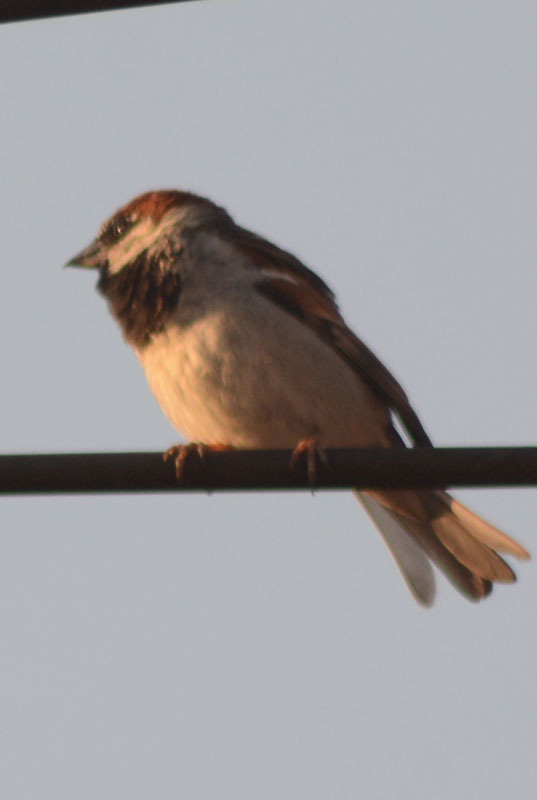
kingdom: Animalia
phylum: Chordata
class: Aves
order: Passeriformes
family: Passeridae
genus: Passer
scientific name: Passer domesticus
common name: House sparrow
